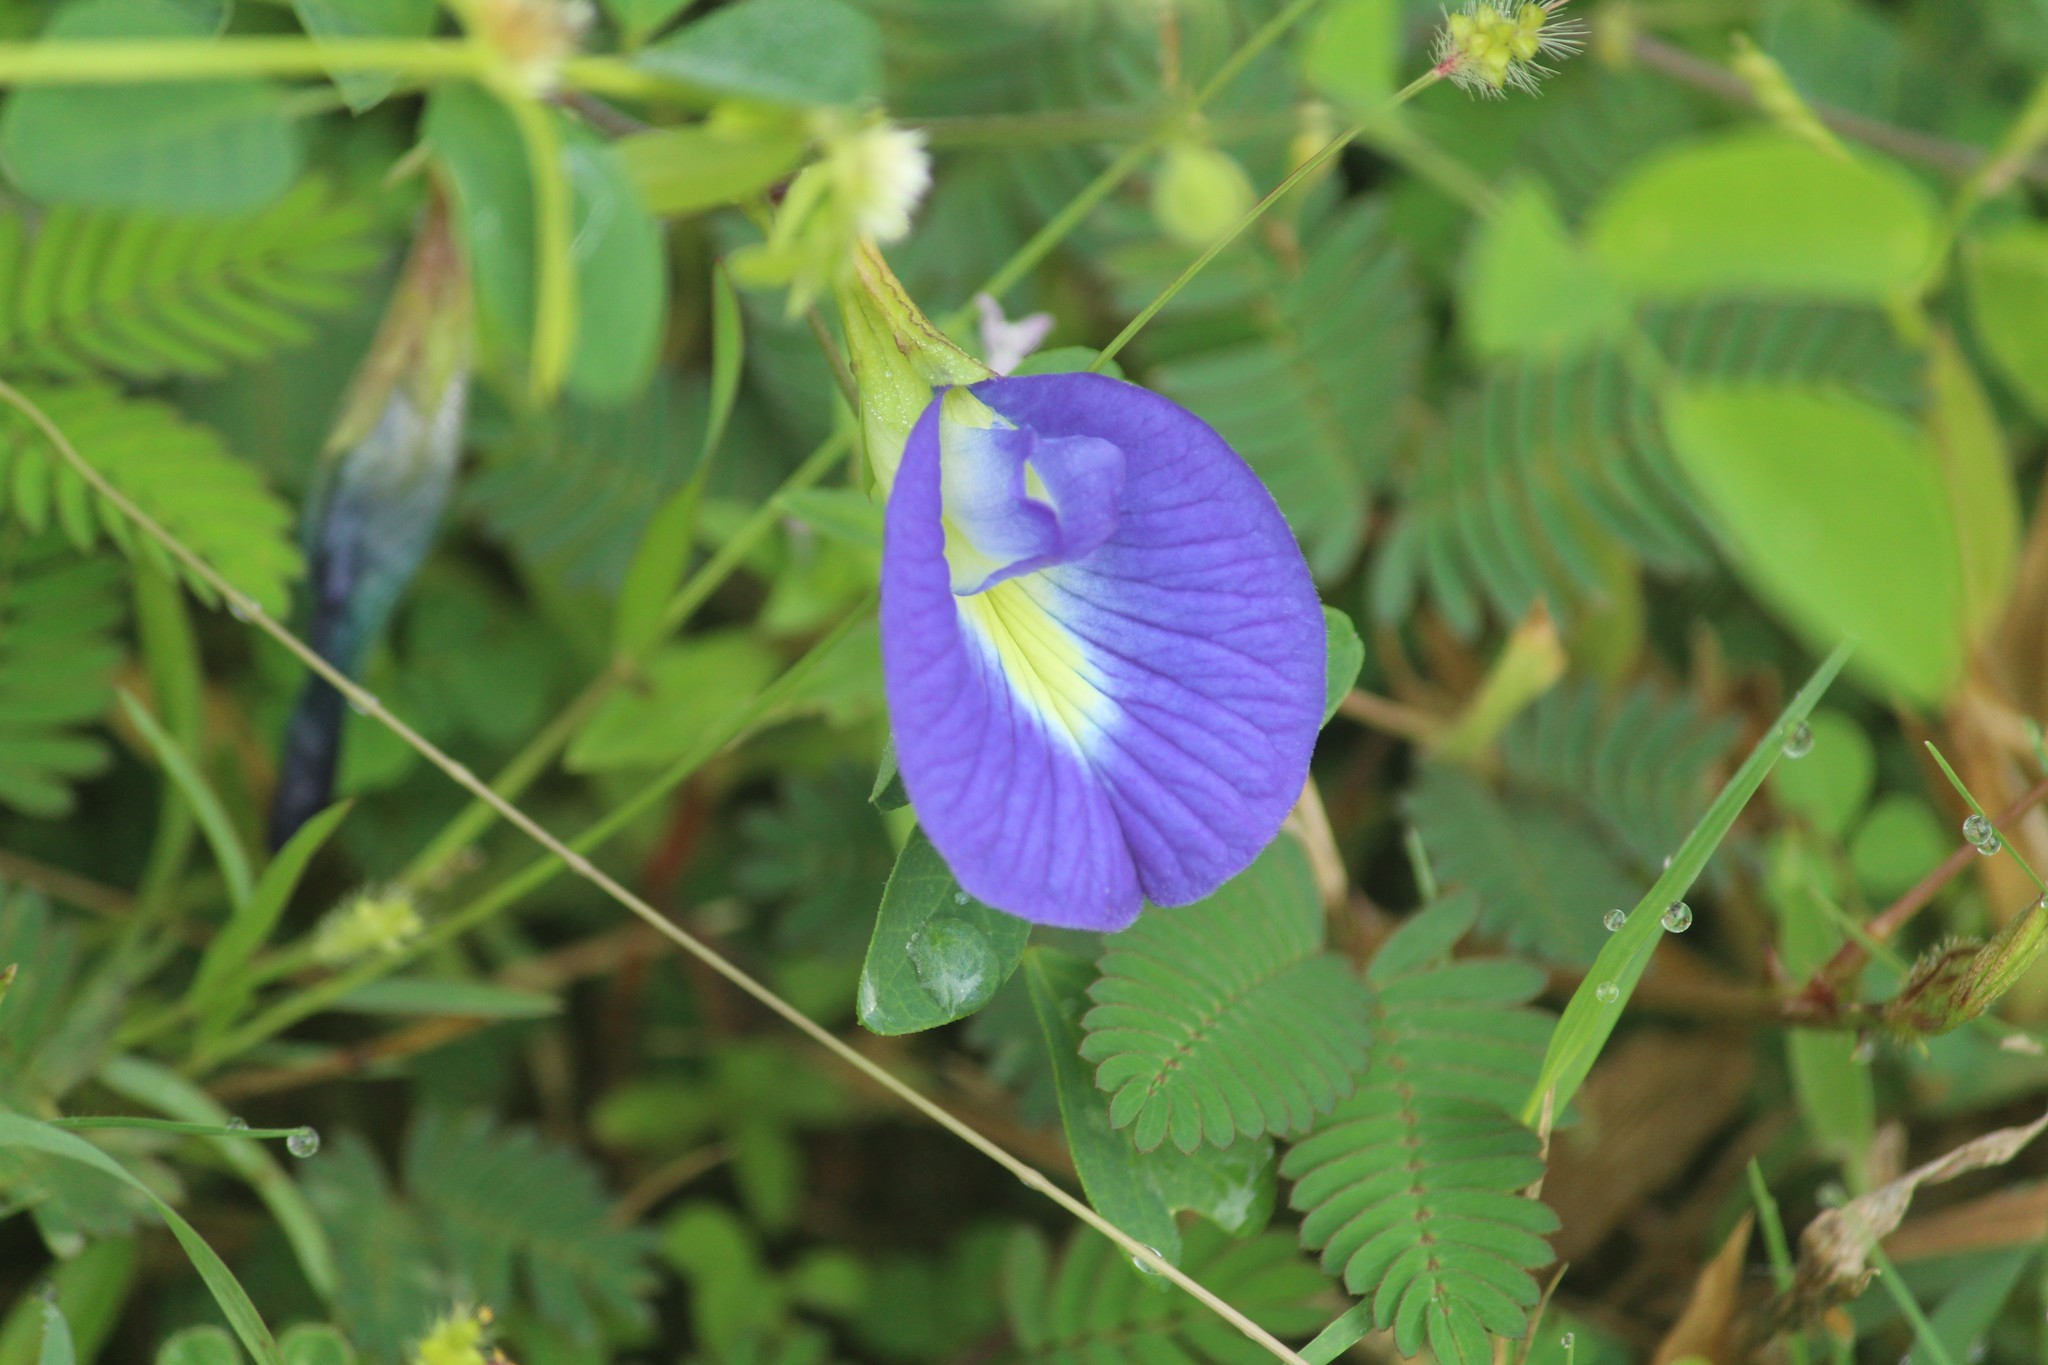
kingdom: Plantae
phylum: Tracheophyta
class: Magnoliopsida
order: Fabales
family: Fabaceae
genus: Clitoria
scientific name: Clitoria ternatea
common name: Asian pigeonwings
